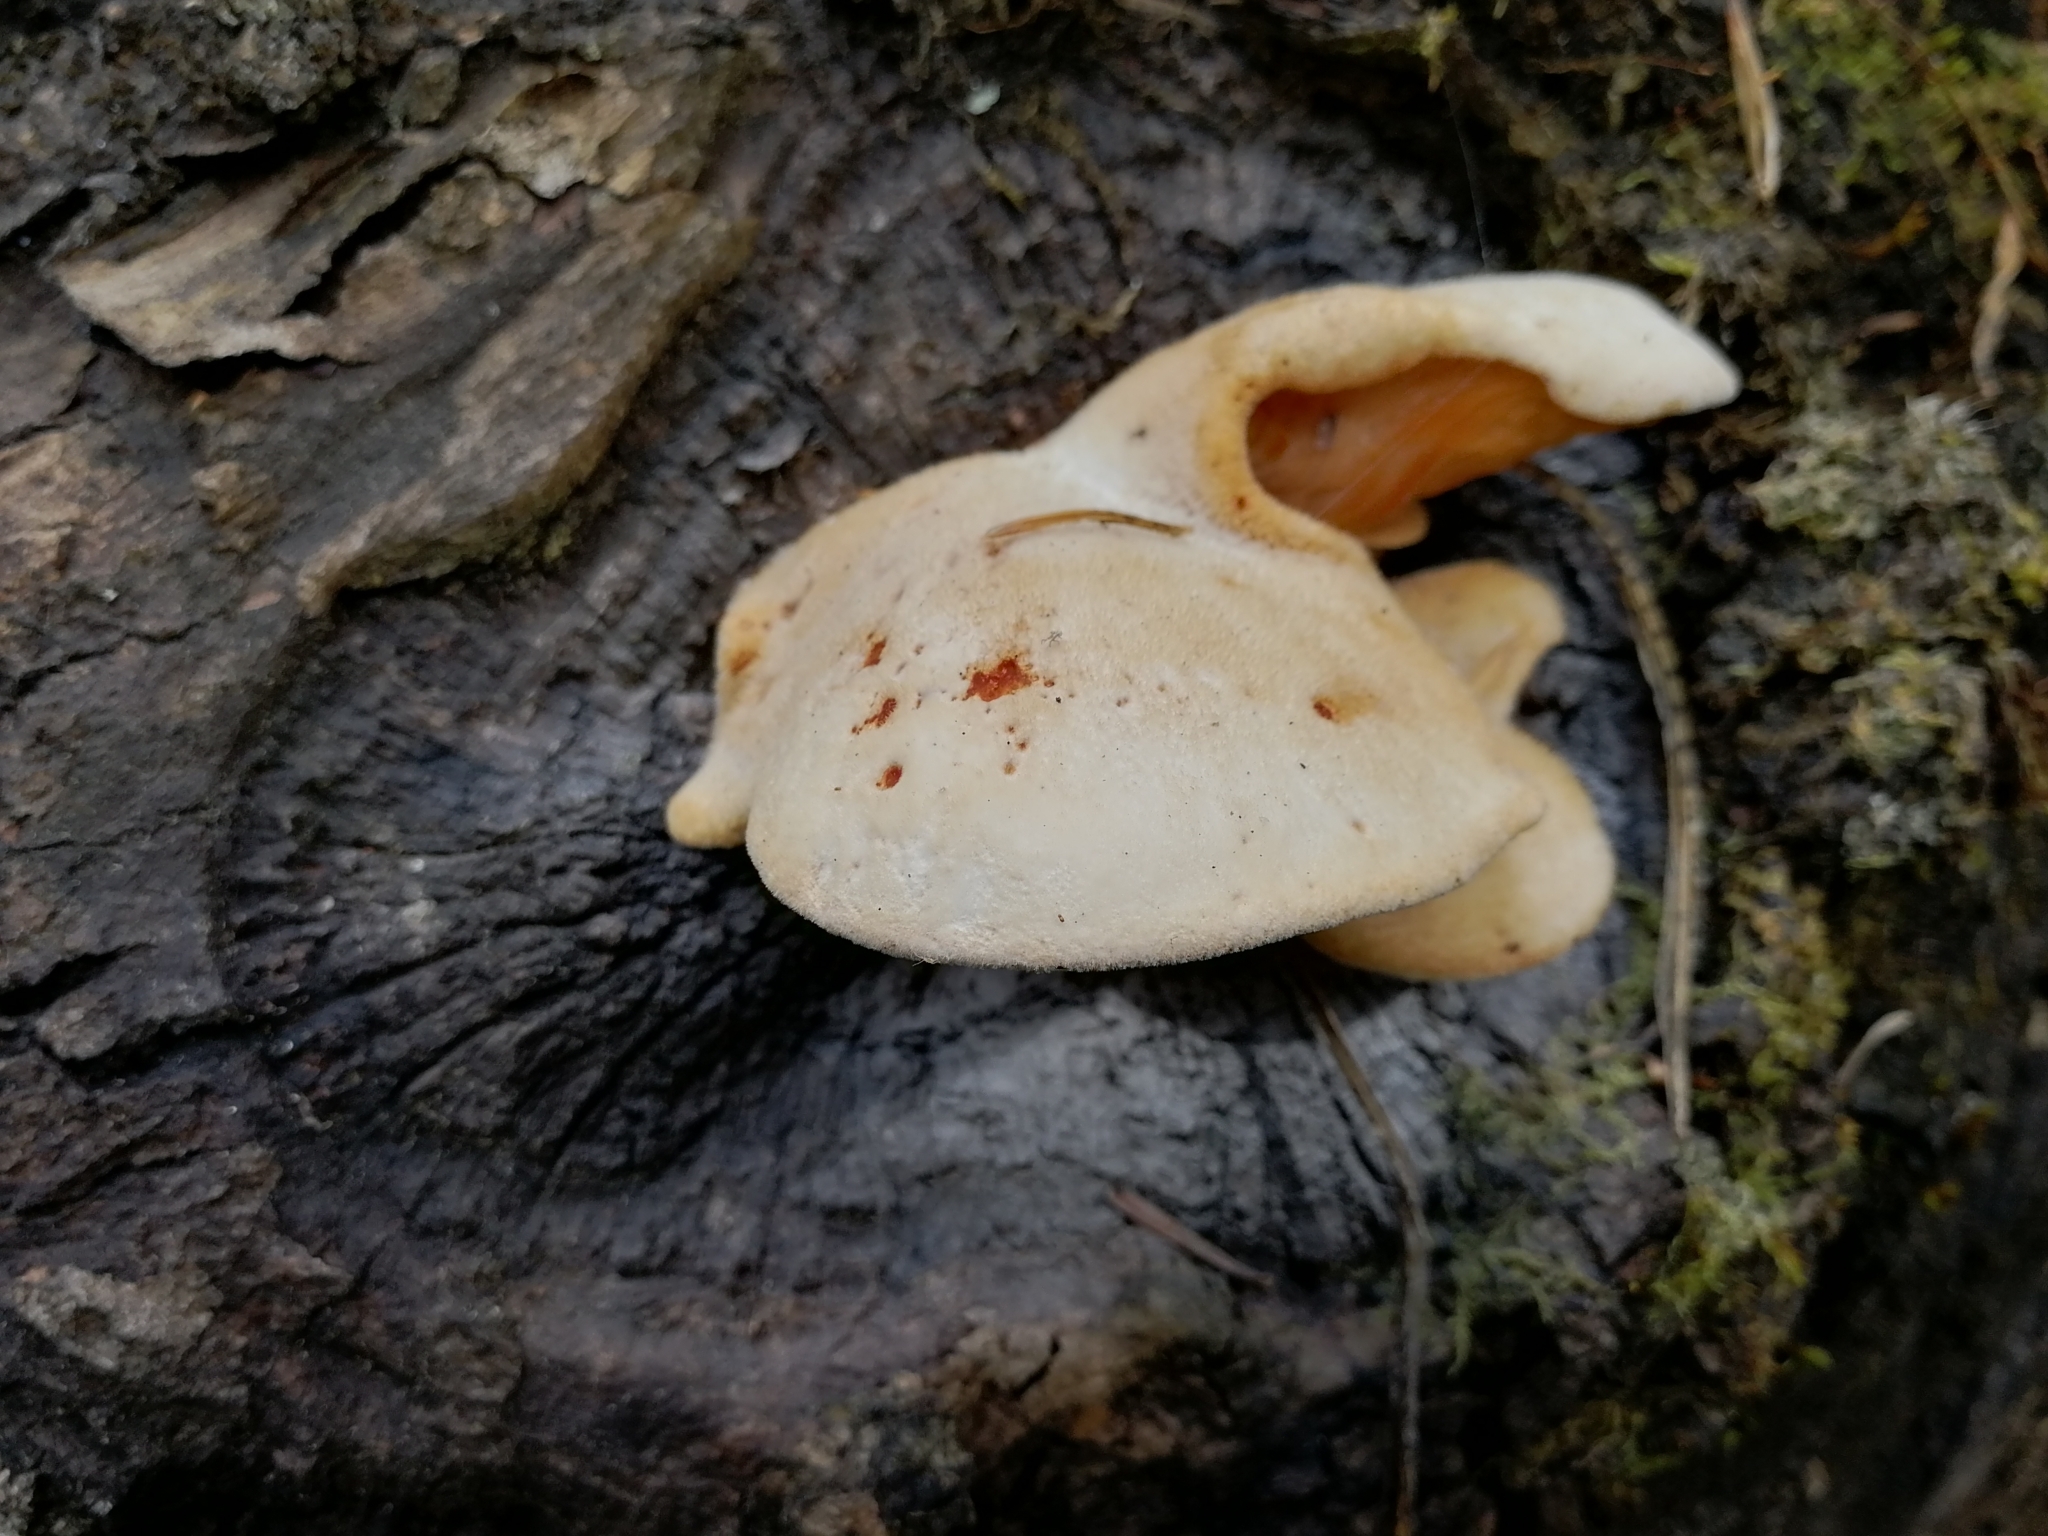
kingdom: Fungi
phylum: Basidiomycota
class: Agaricomycetes
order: Polyporales
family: Polyporaceae
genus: Lentinus
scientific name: Lentinus pilososquamulosus
